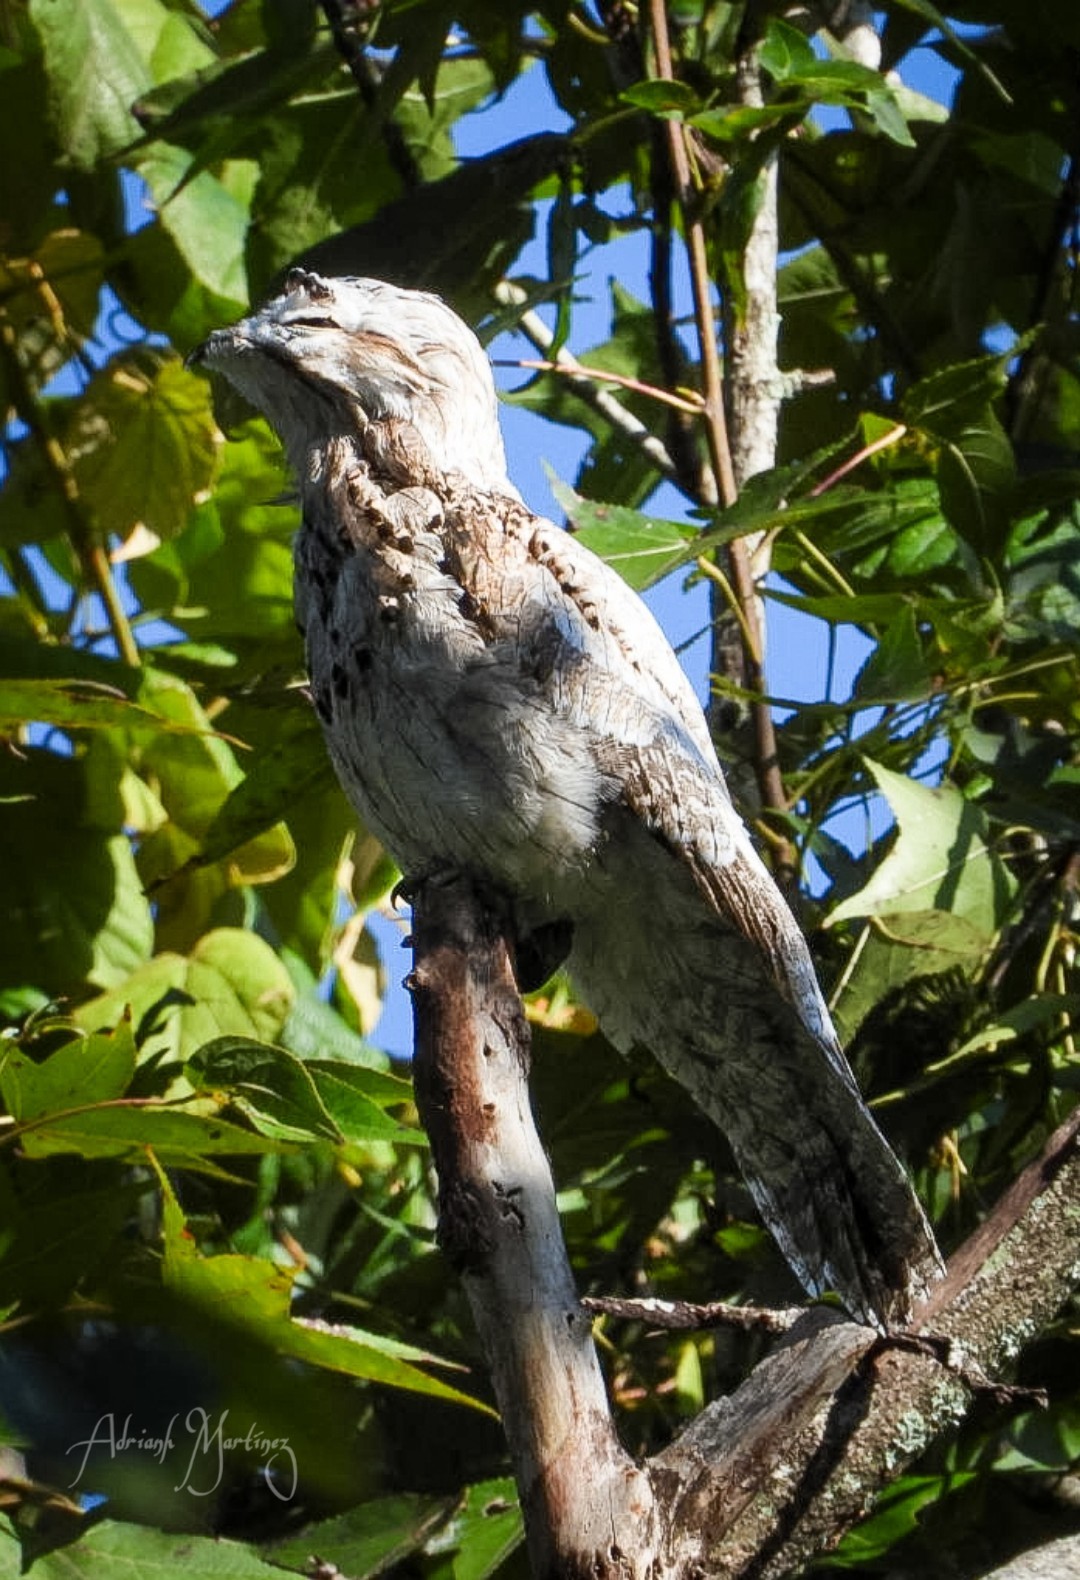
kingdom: Animalia
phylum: Chordata
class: Aves
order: Nyctibiiformes
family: Nyctibiidae
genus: Nyctibius
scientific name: Nyctibius jamaicensis
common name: Northern potoo
